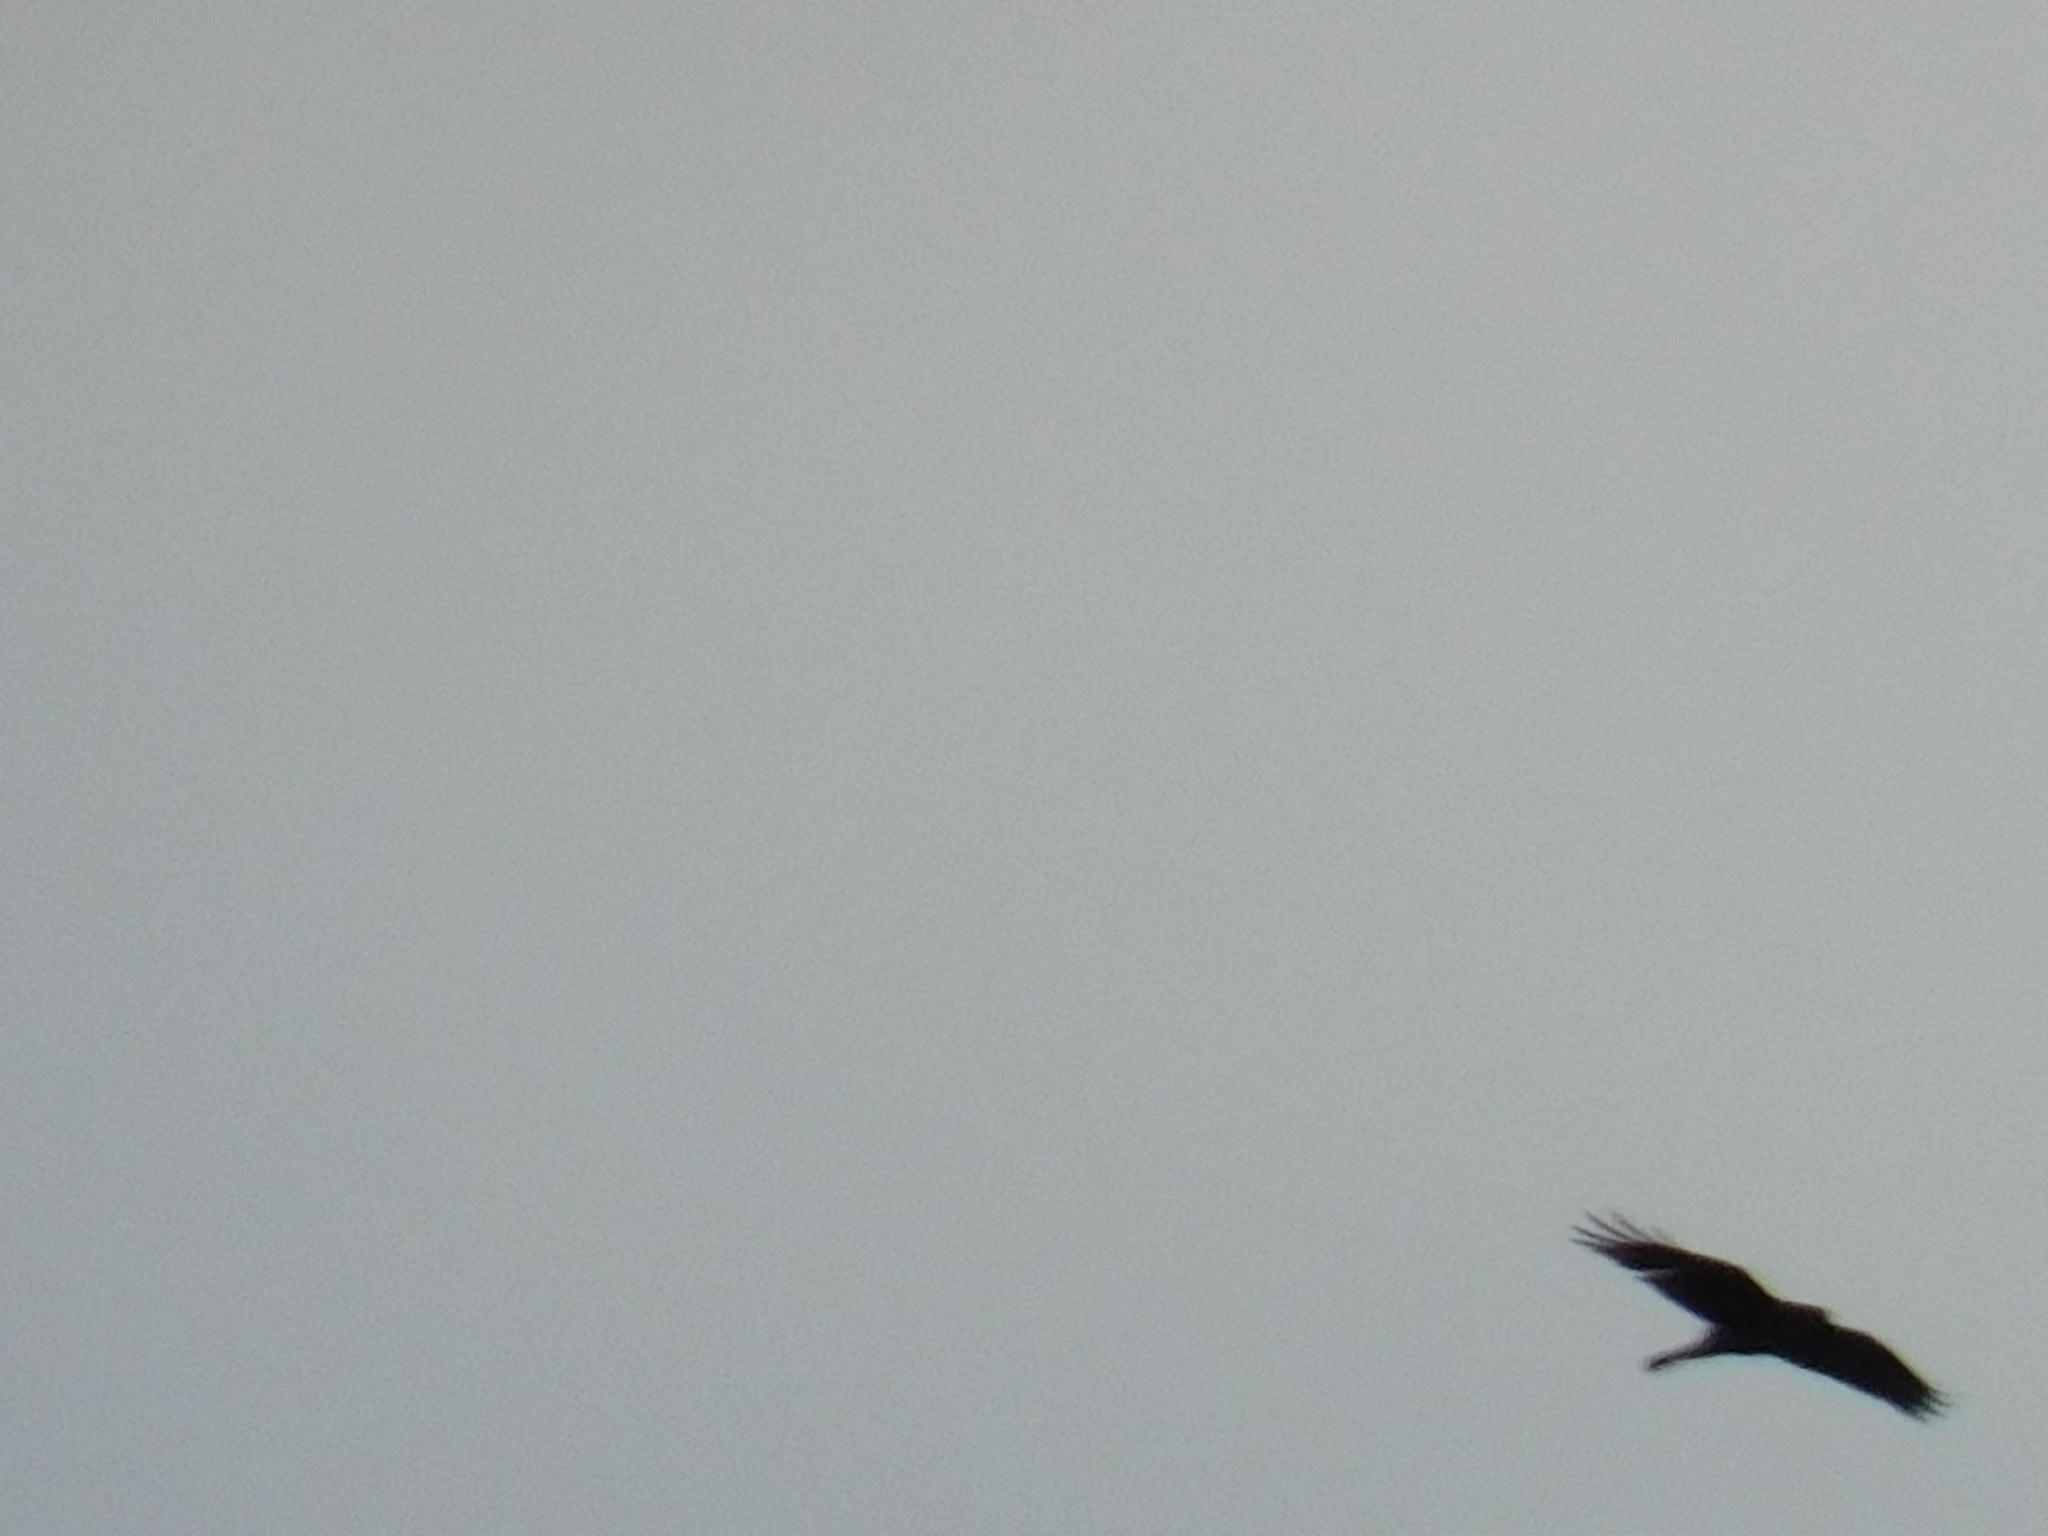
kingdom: Animalia
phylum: Chordata
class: Aves
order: Passeriformes
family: Corvidae
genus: Corvus
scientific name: Corvus corax
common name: Common raven
